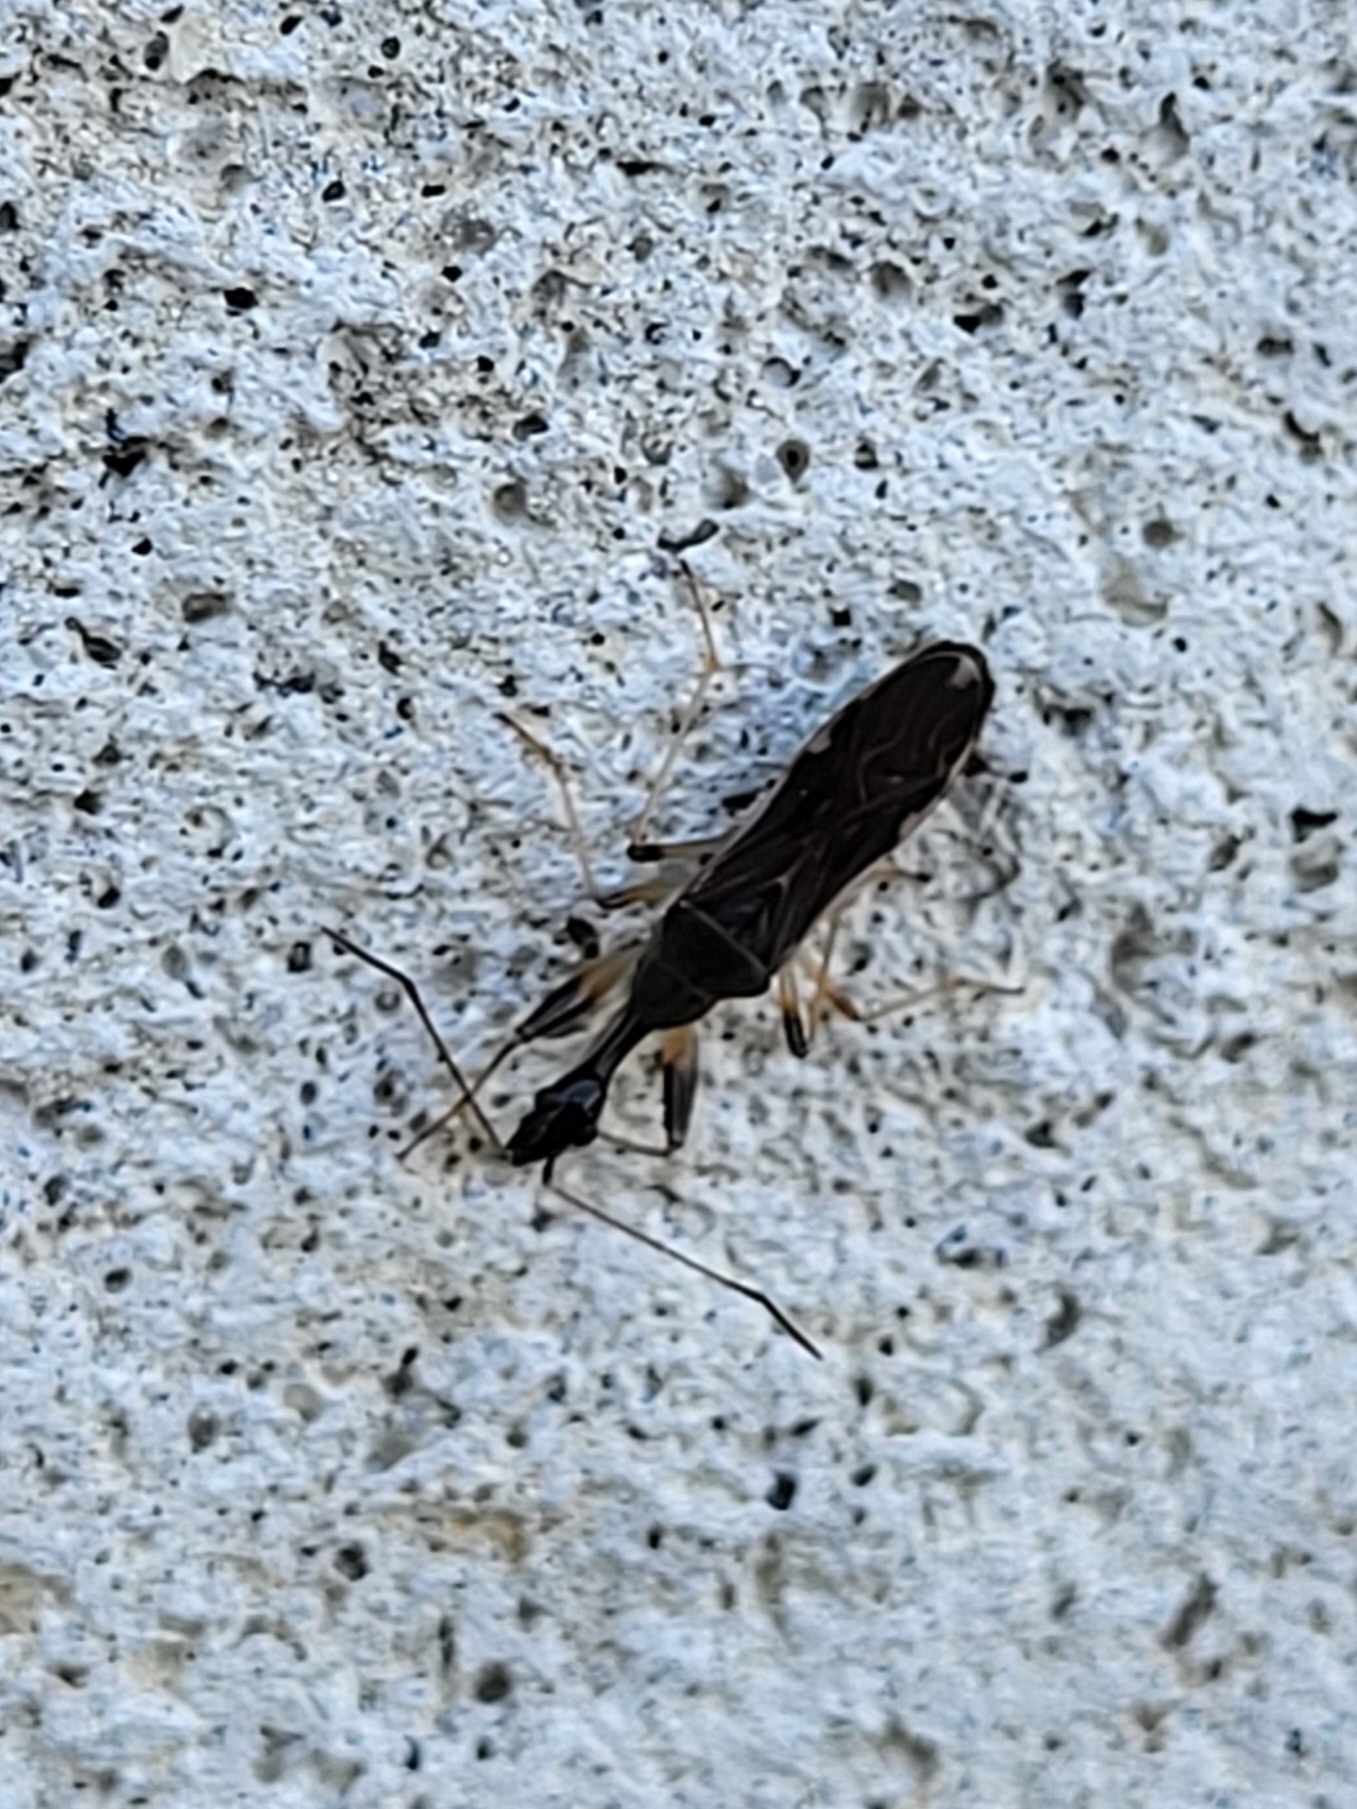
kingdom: Animalia
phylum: Arthropoda
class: Insecta
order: Hemiptera
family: Rhyparochromidae
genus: Myodocha
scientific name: Myodocha serripes
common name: Long-necked seed bug
